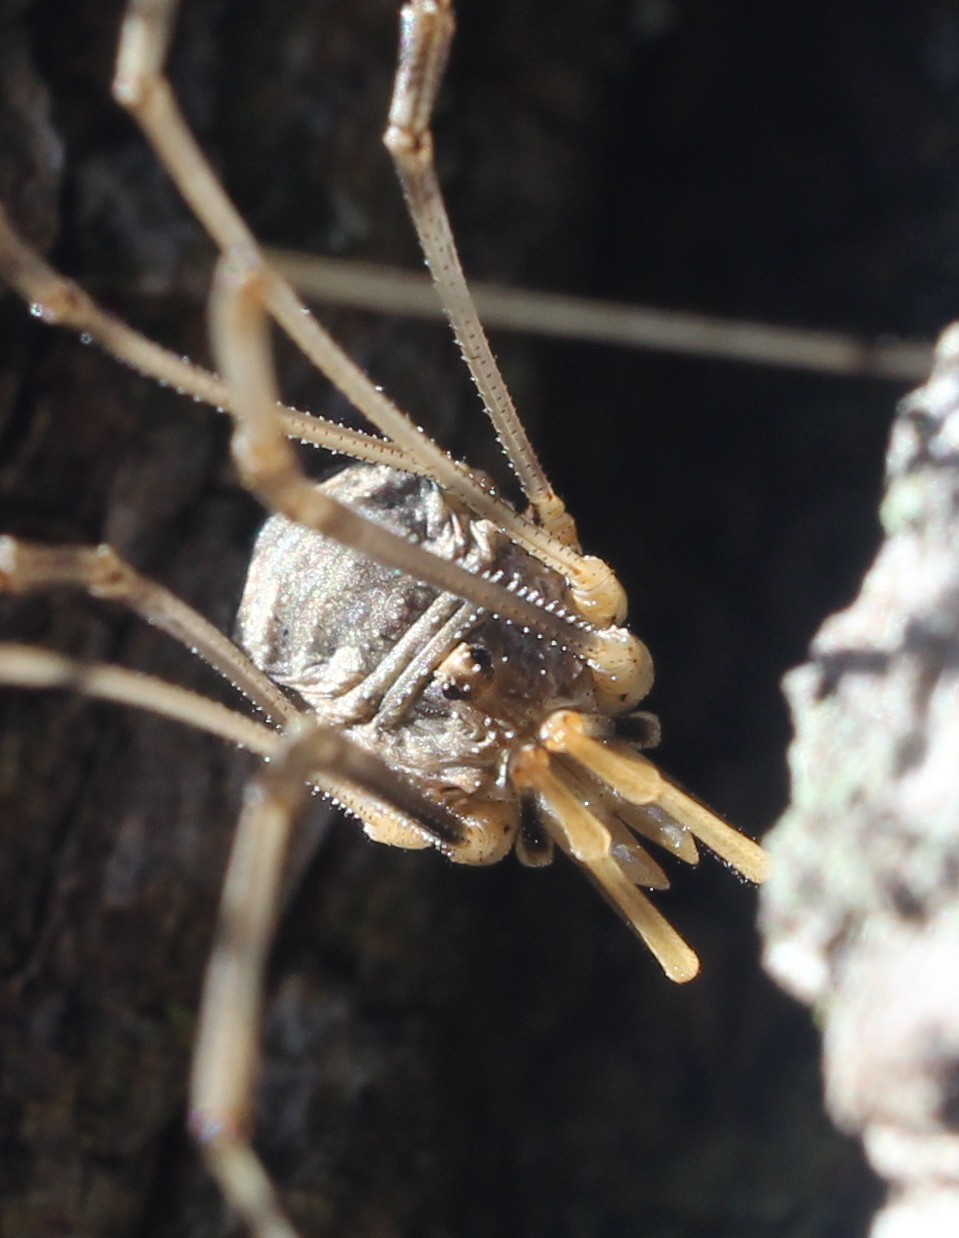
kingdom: Animalia
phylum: Arthropoda
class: Arachnida
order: Opiliones
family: Phalangiidae
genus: Phalangium
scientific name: Phalangium opilio
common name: Daddy longleg
